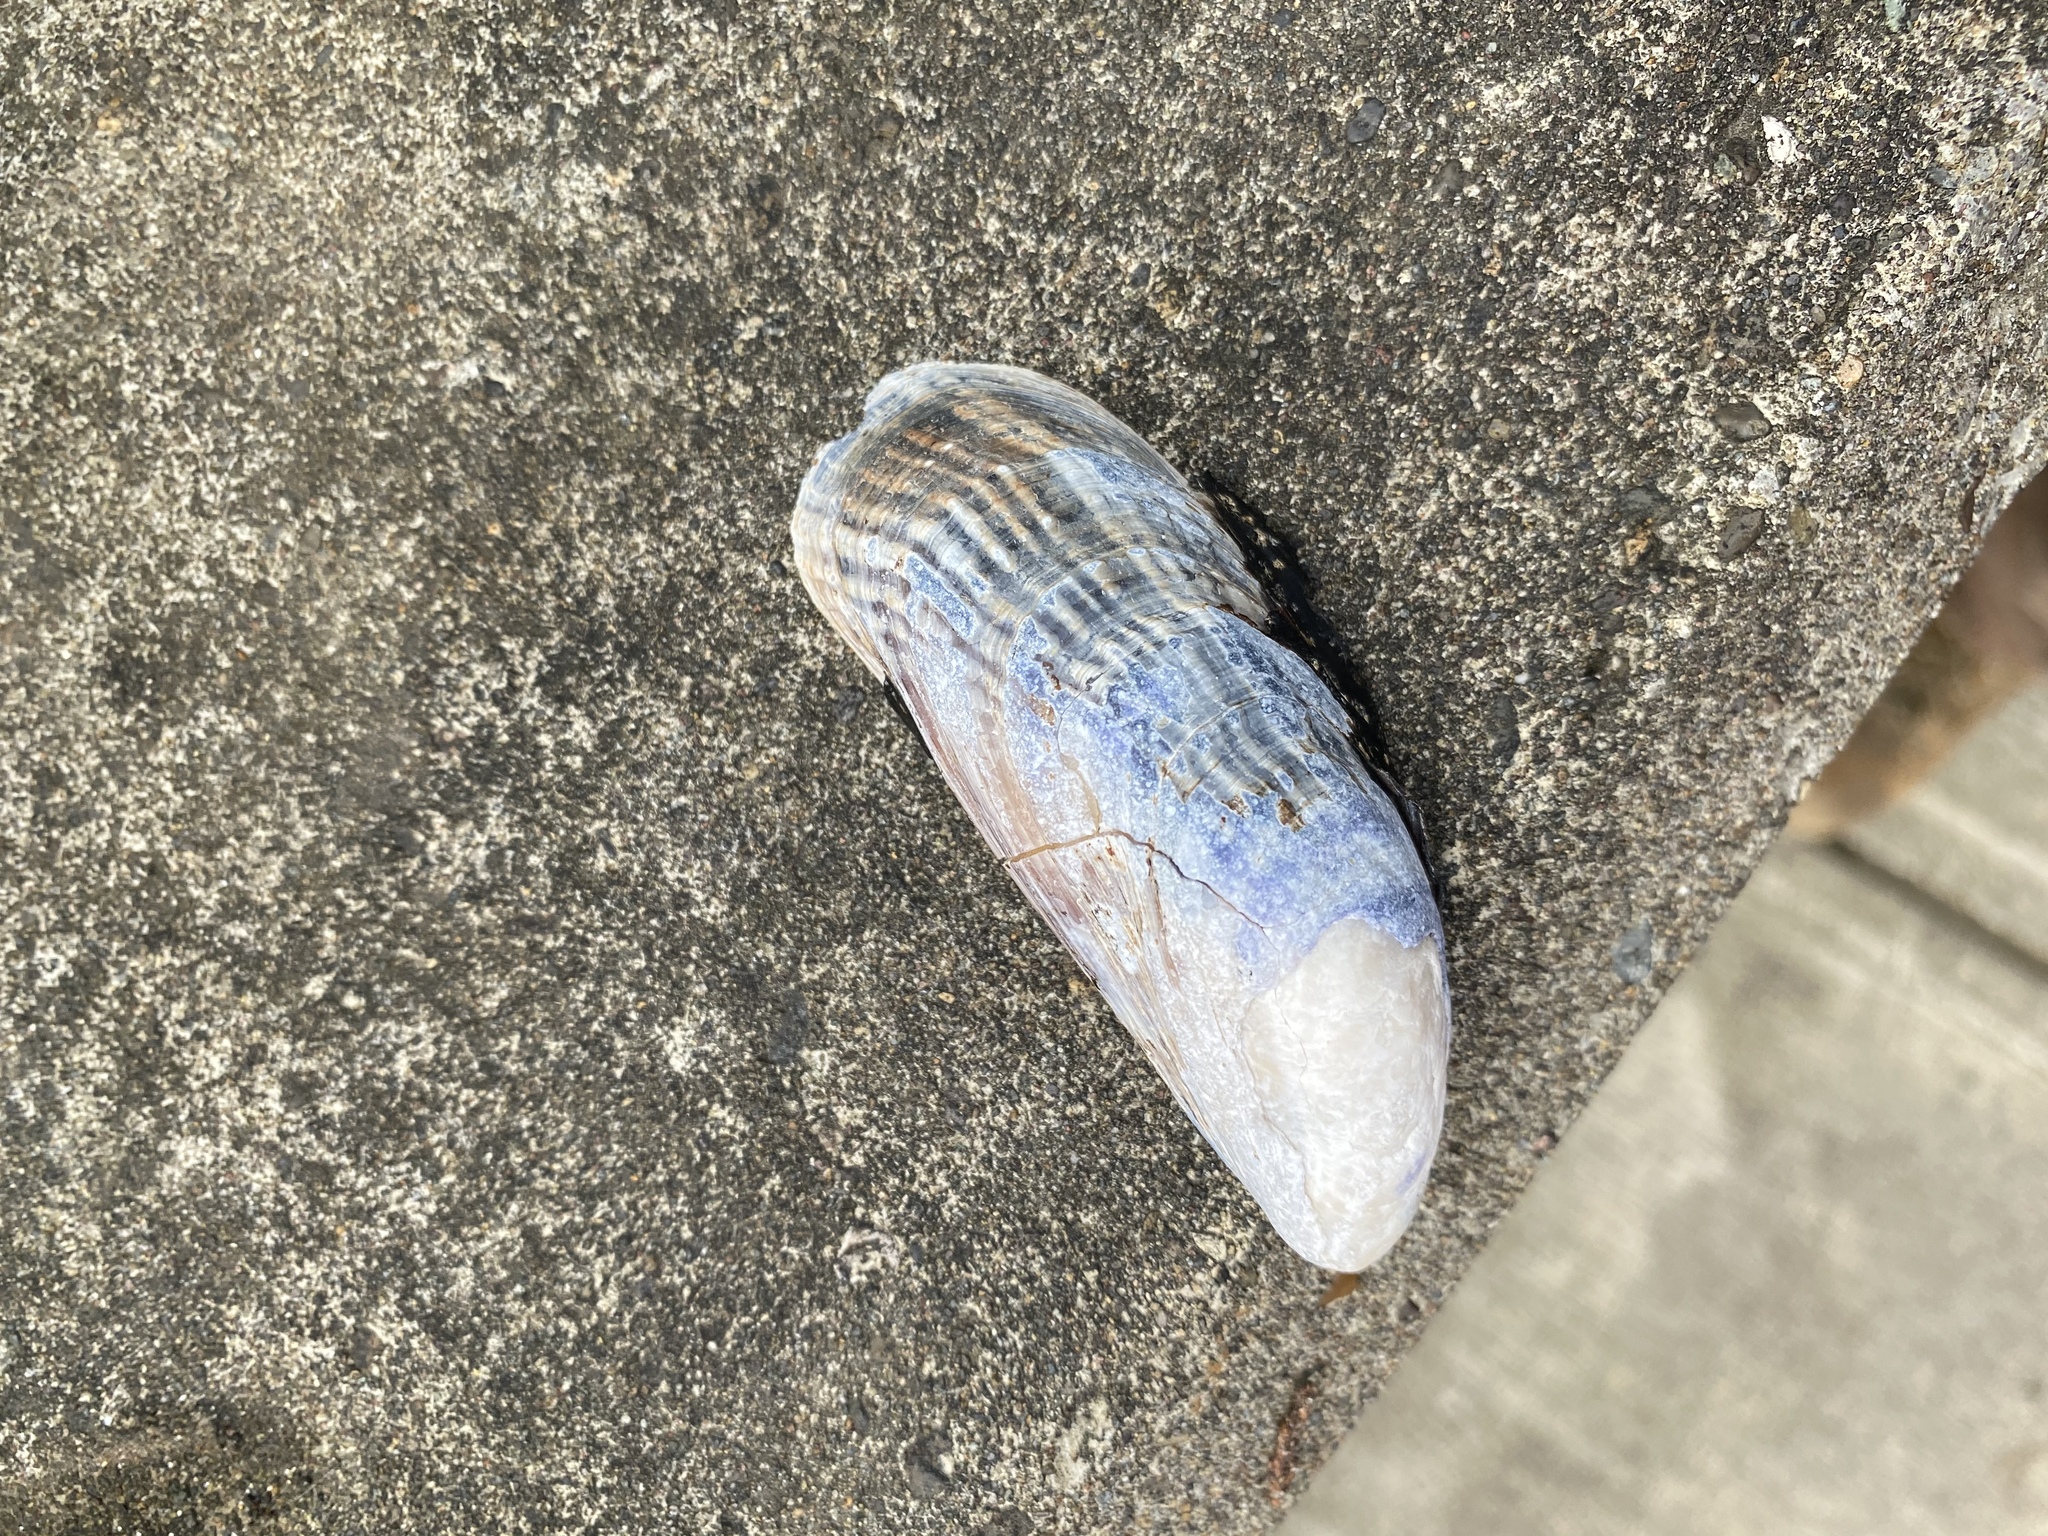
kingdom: Animalia
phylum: Mollusca
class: Bivalvia
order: Mytilida
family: Mytilidae
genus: Mytilus
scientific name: Mytilus californianus
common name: California mussel
